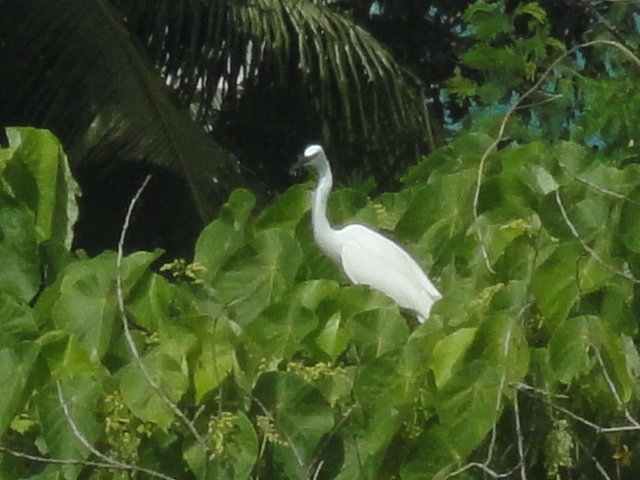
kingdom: Animalia
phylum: Chordata
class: Aves
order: Pelecaniformes
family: Ardeidae
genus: Egretta
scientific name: Egretta garzetta
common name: Little egret
